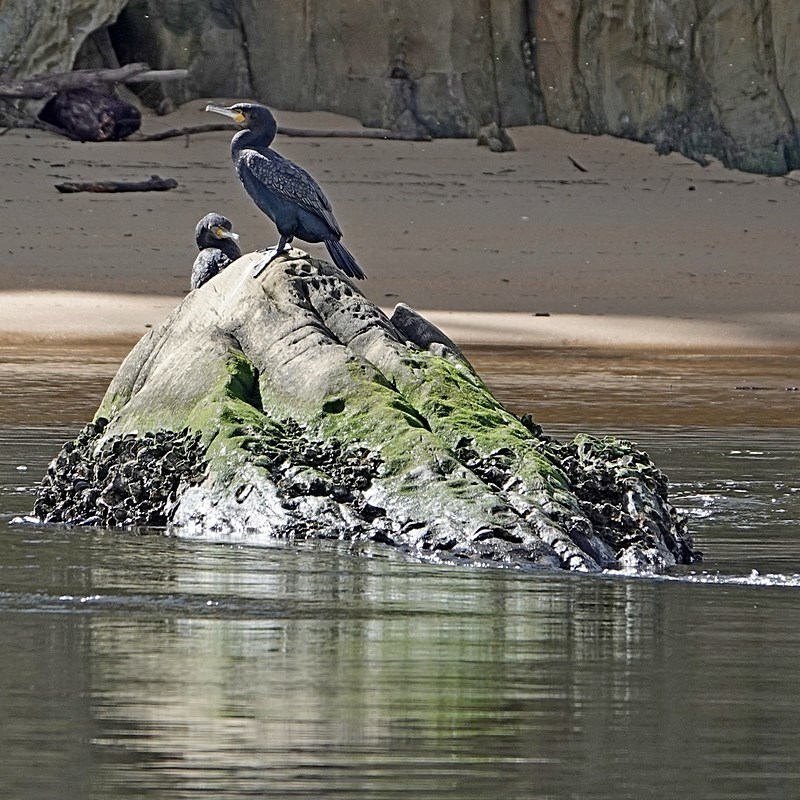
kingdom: Animalia
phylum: Chordata
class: Aves
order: Suliformes
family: Phalacrocoracidae
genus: Phalacrocorax
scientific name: Phalacrocorax carbo
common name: Great cormorant
